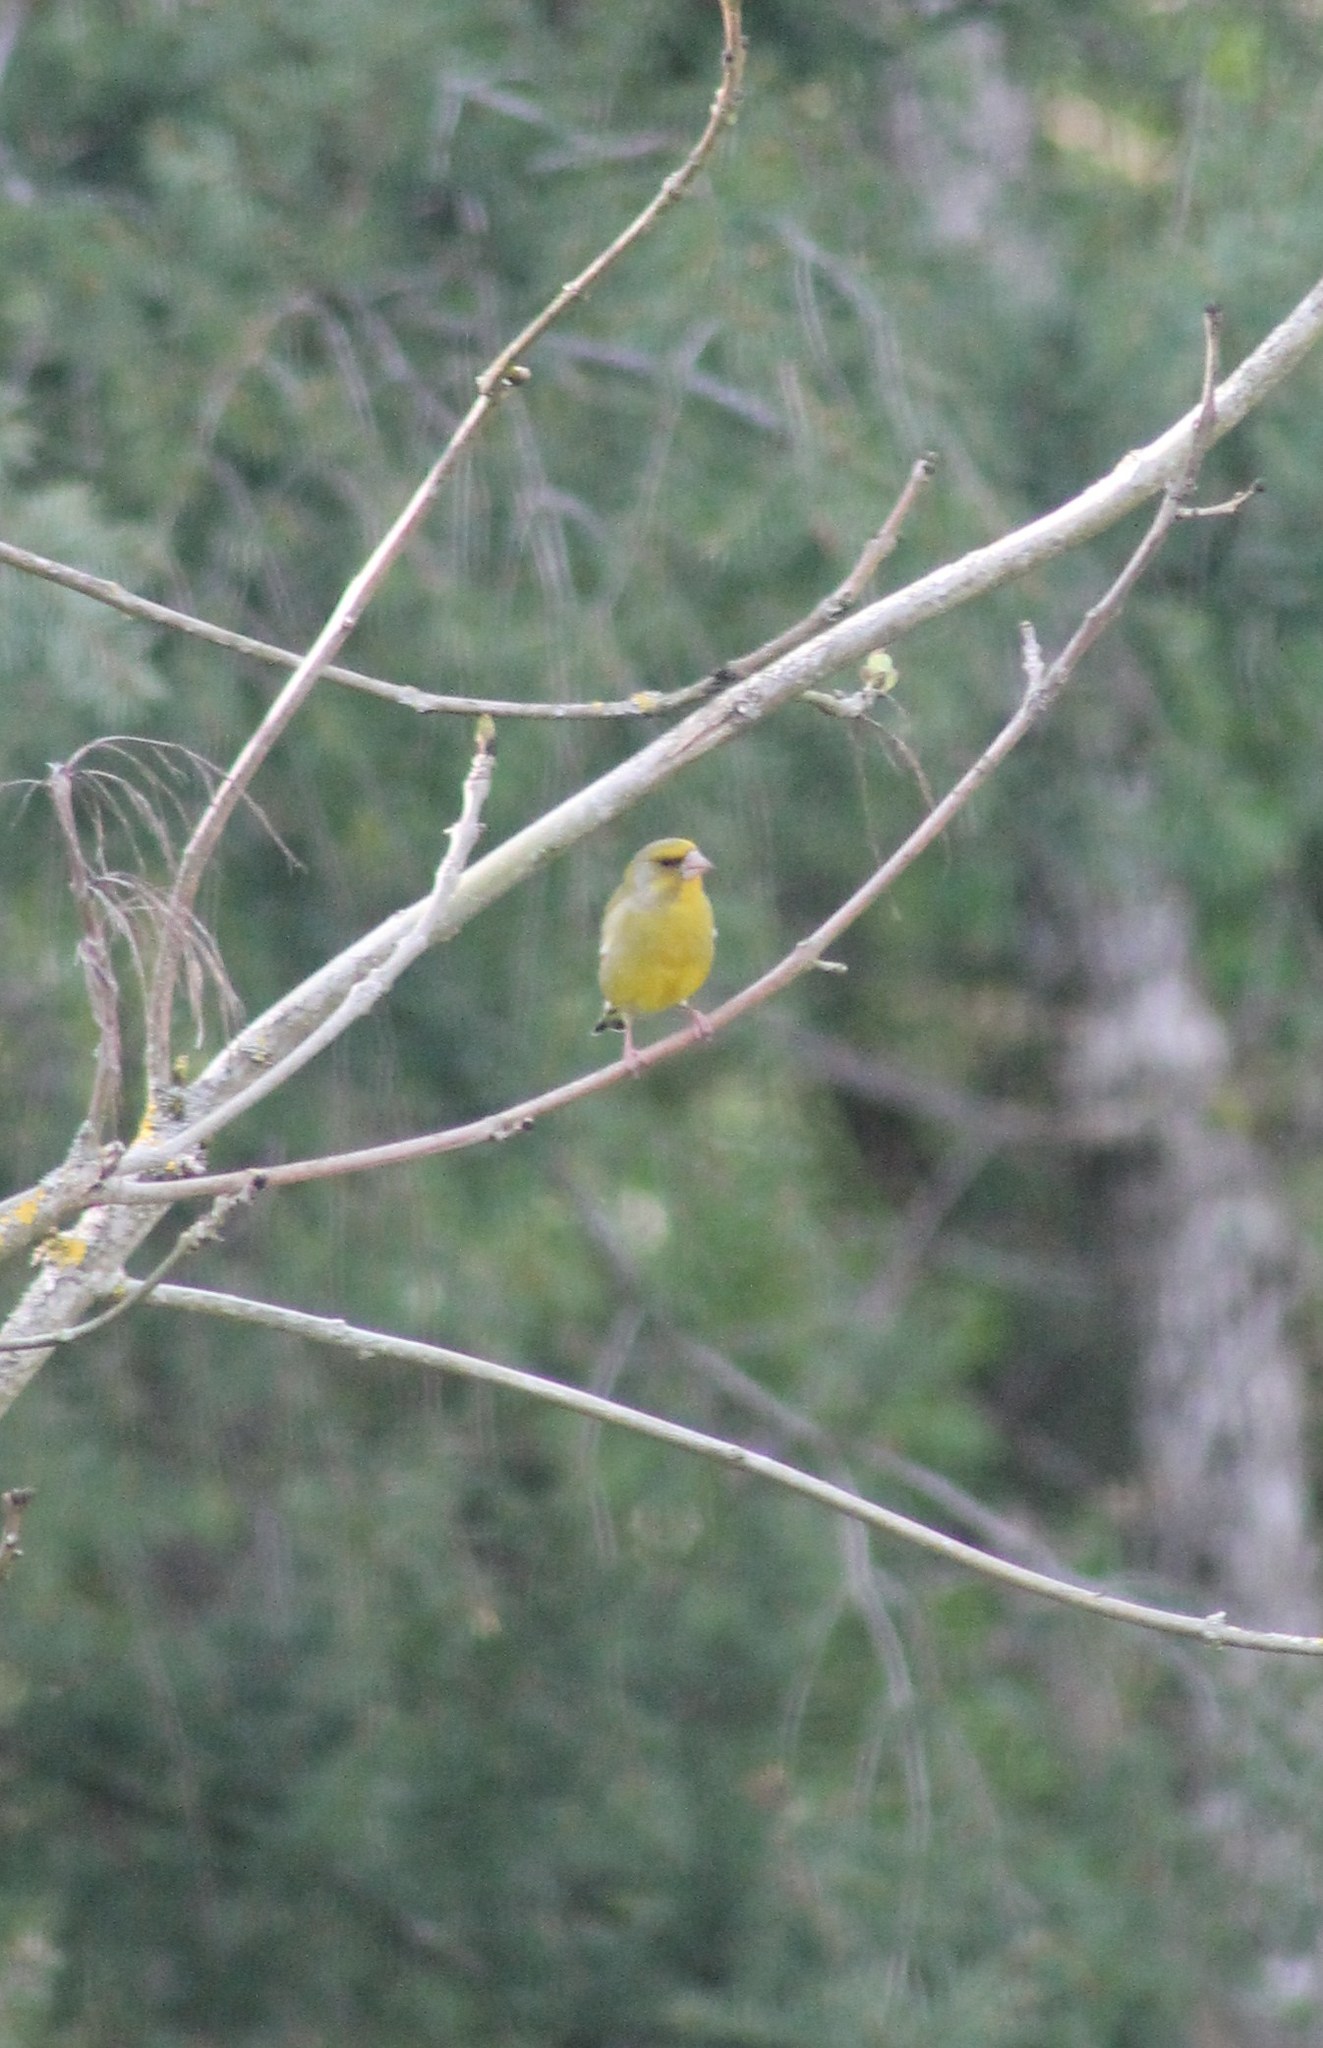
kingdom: Plantae
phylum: Tracheophyta
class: Liliopsida
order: Poales
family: Poaceae
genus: Chloris
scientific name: Chloris chloris
